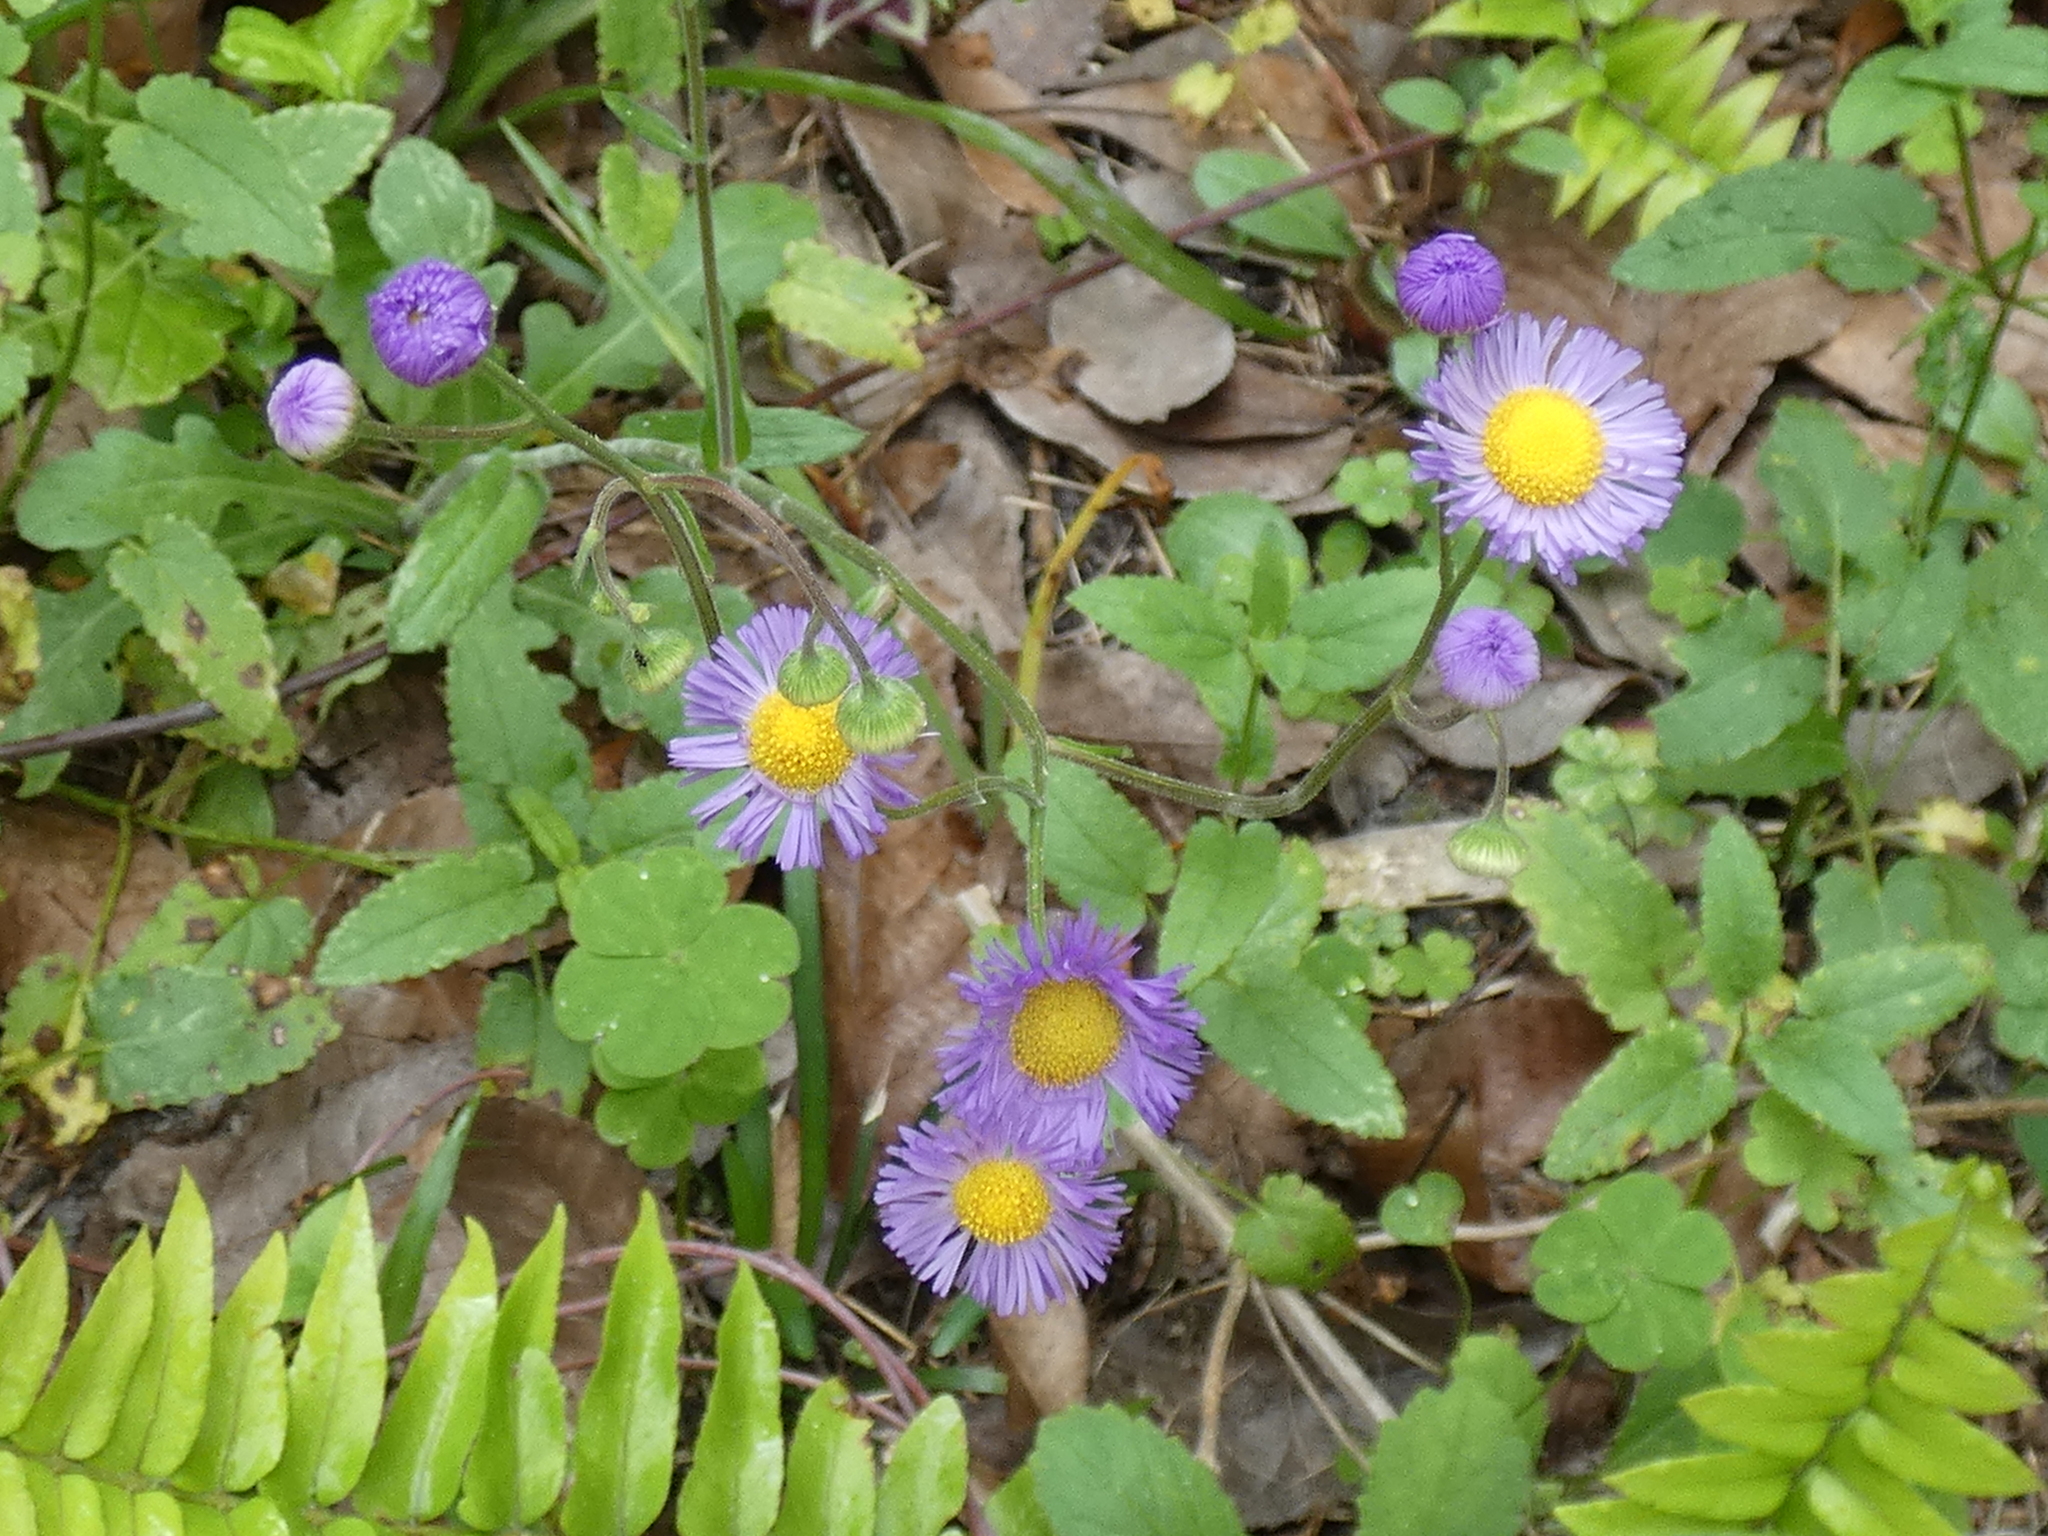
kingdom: Plantae
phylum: Tracheophyta
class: Magnoliopsida
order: Asterales
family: Asteraceae
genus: Erigeron
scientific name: Erigeron quercifolius
